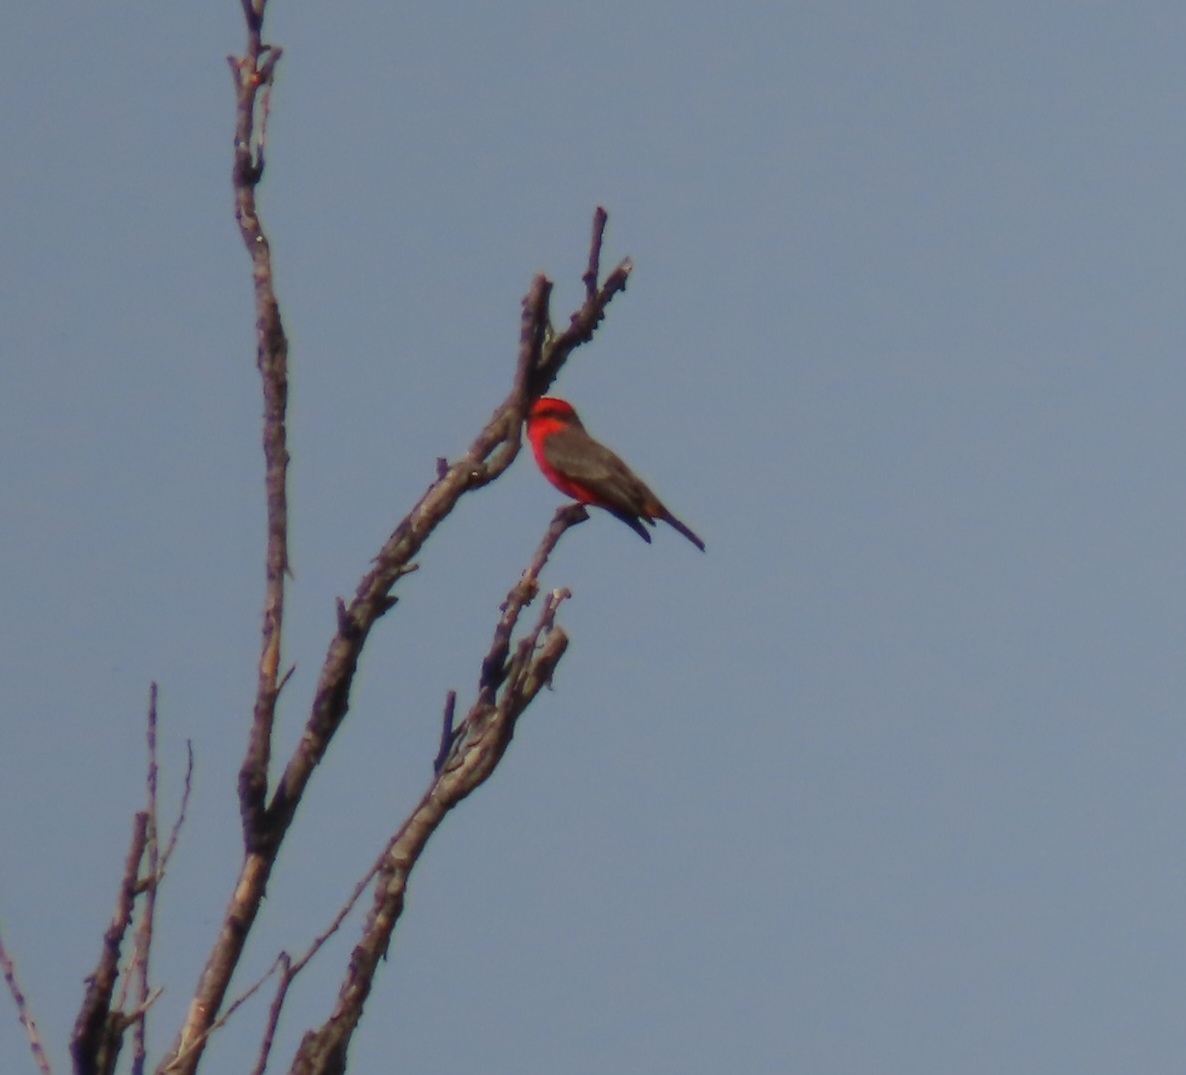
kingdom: Animalia
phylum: Chordata
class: Aves
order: Passeriformes
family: Tyrannidae
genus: Pyrocephalus
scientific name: Pyrocephalus rubinus
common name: Vermilion flycatcher
